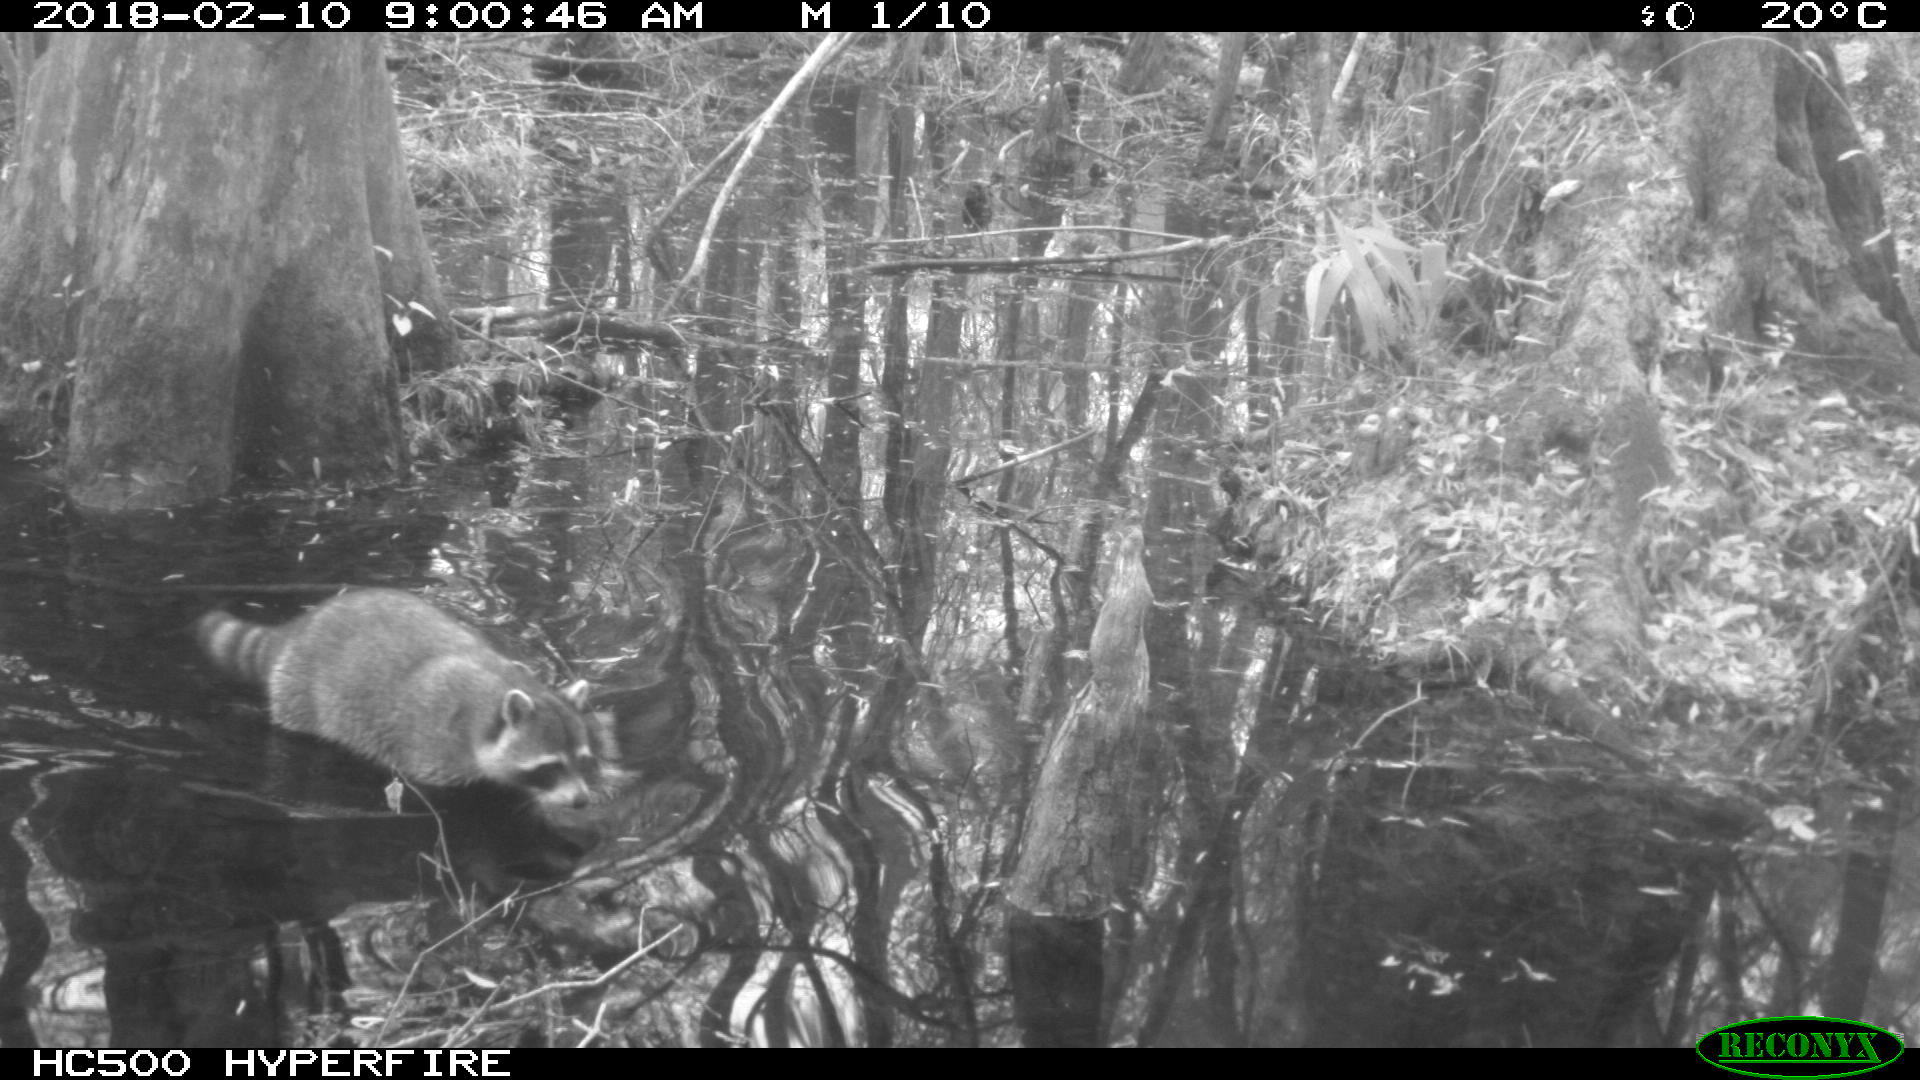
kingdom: Animalia
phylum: Chordata
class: Mammalia
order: Carnivora
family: Procyonidae
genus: Procyon
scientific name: Procyon lotor
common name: Raccoon
